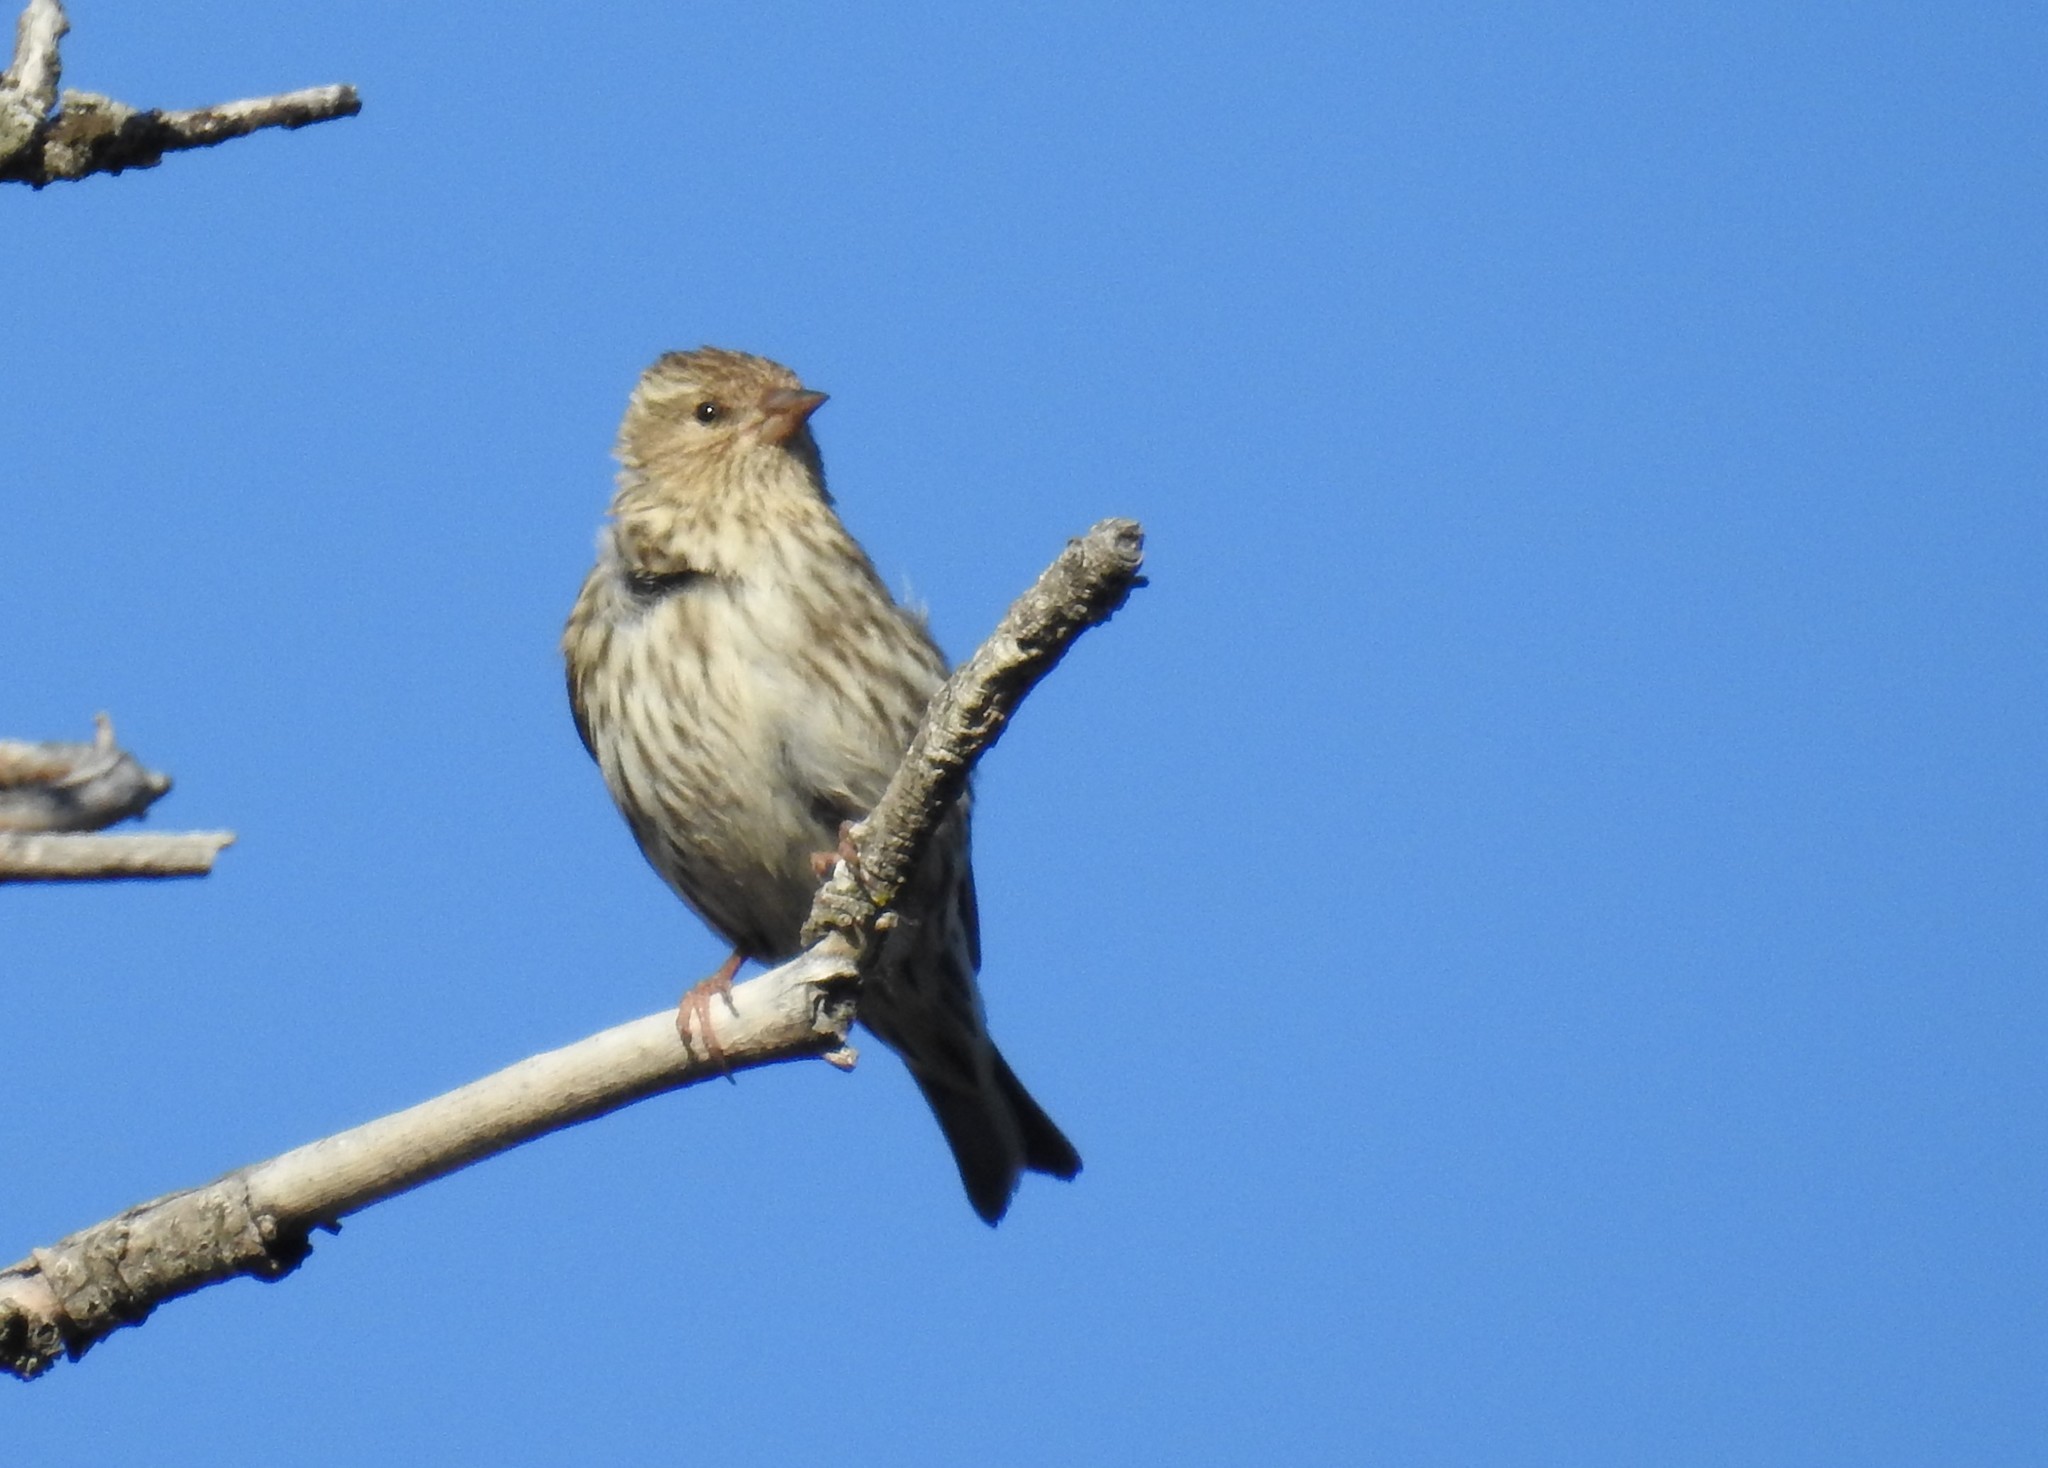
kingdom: Animalia
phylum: Chordata
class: Aves
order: Passeriformes
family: Fringillidae
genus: Spinus
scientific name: Spinus pinus
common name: Pine siskin
